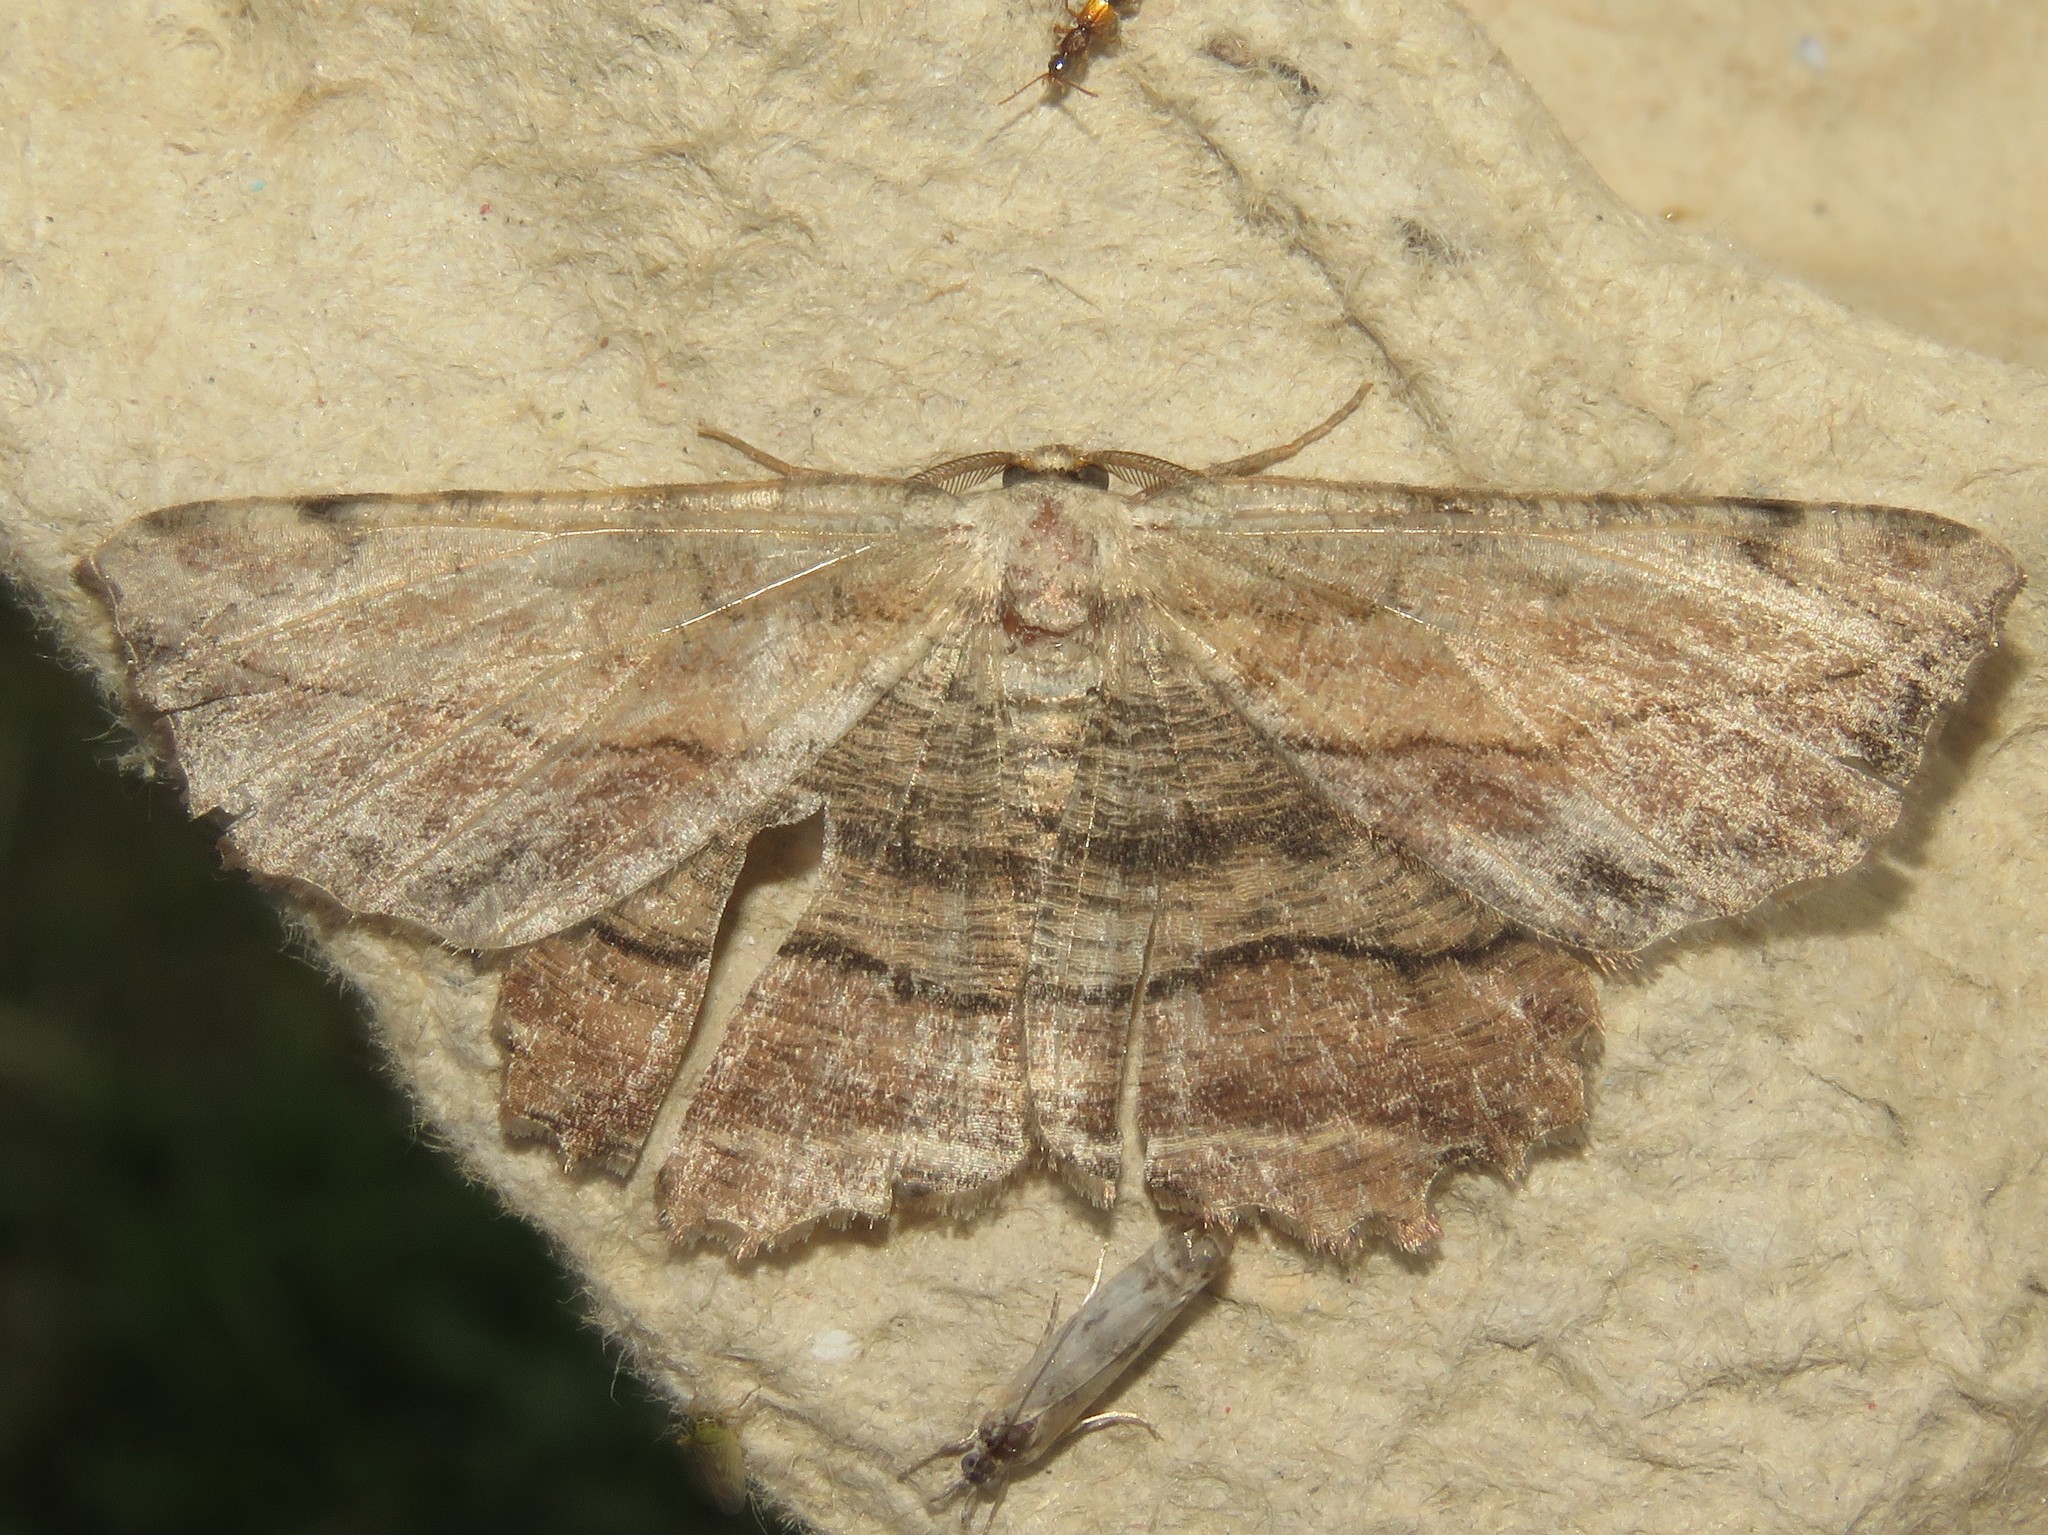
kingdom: Animalia
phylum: Arthropoda
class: Insecta
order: Lepidoptera
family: Geometridae
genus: Lytrosis
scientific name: Lytrosis unitaria
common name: Common lytrosis
